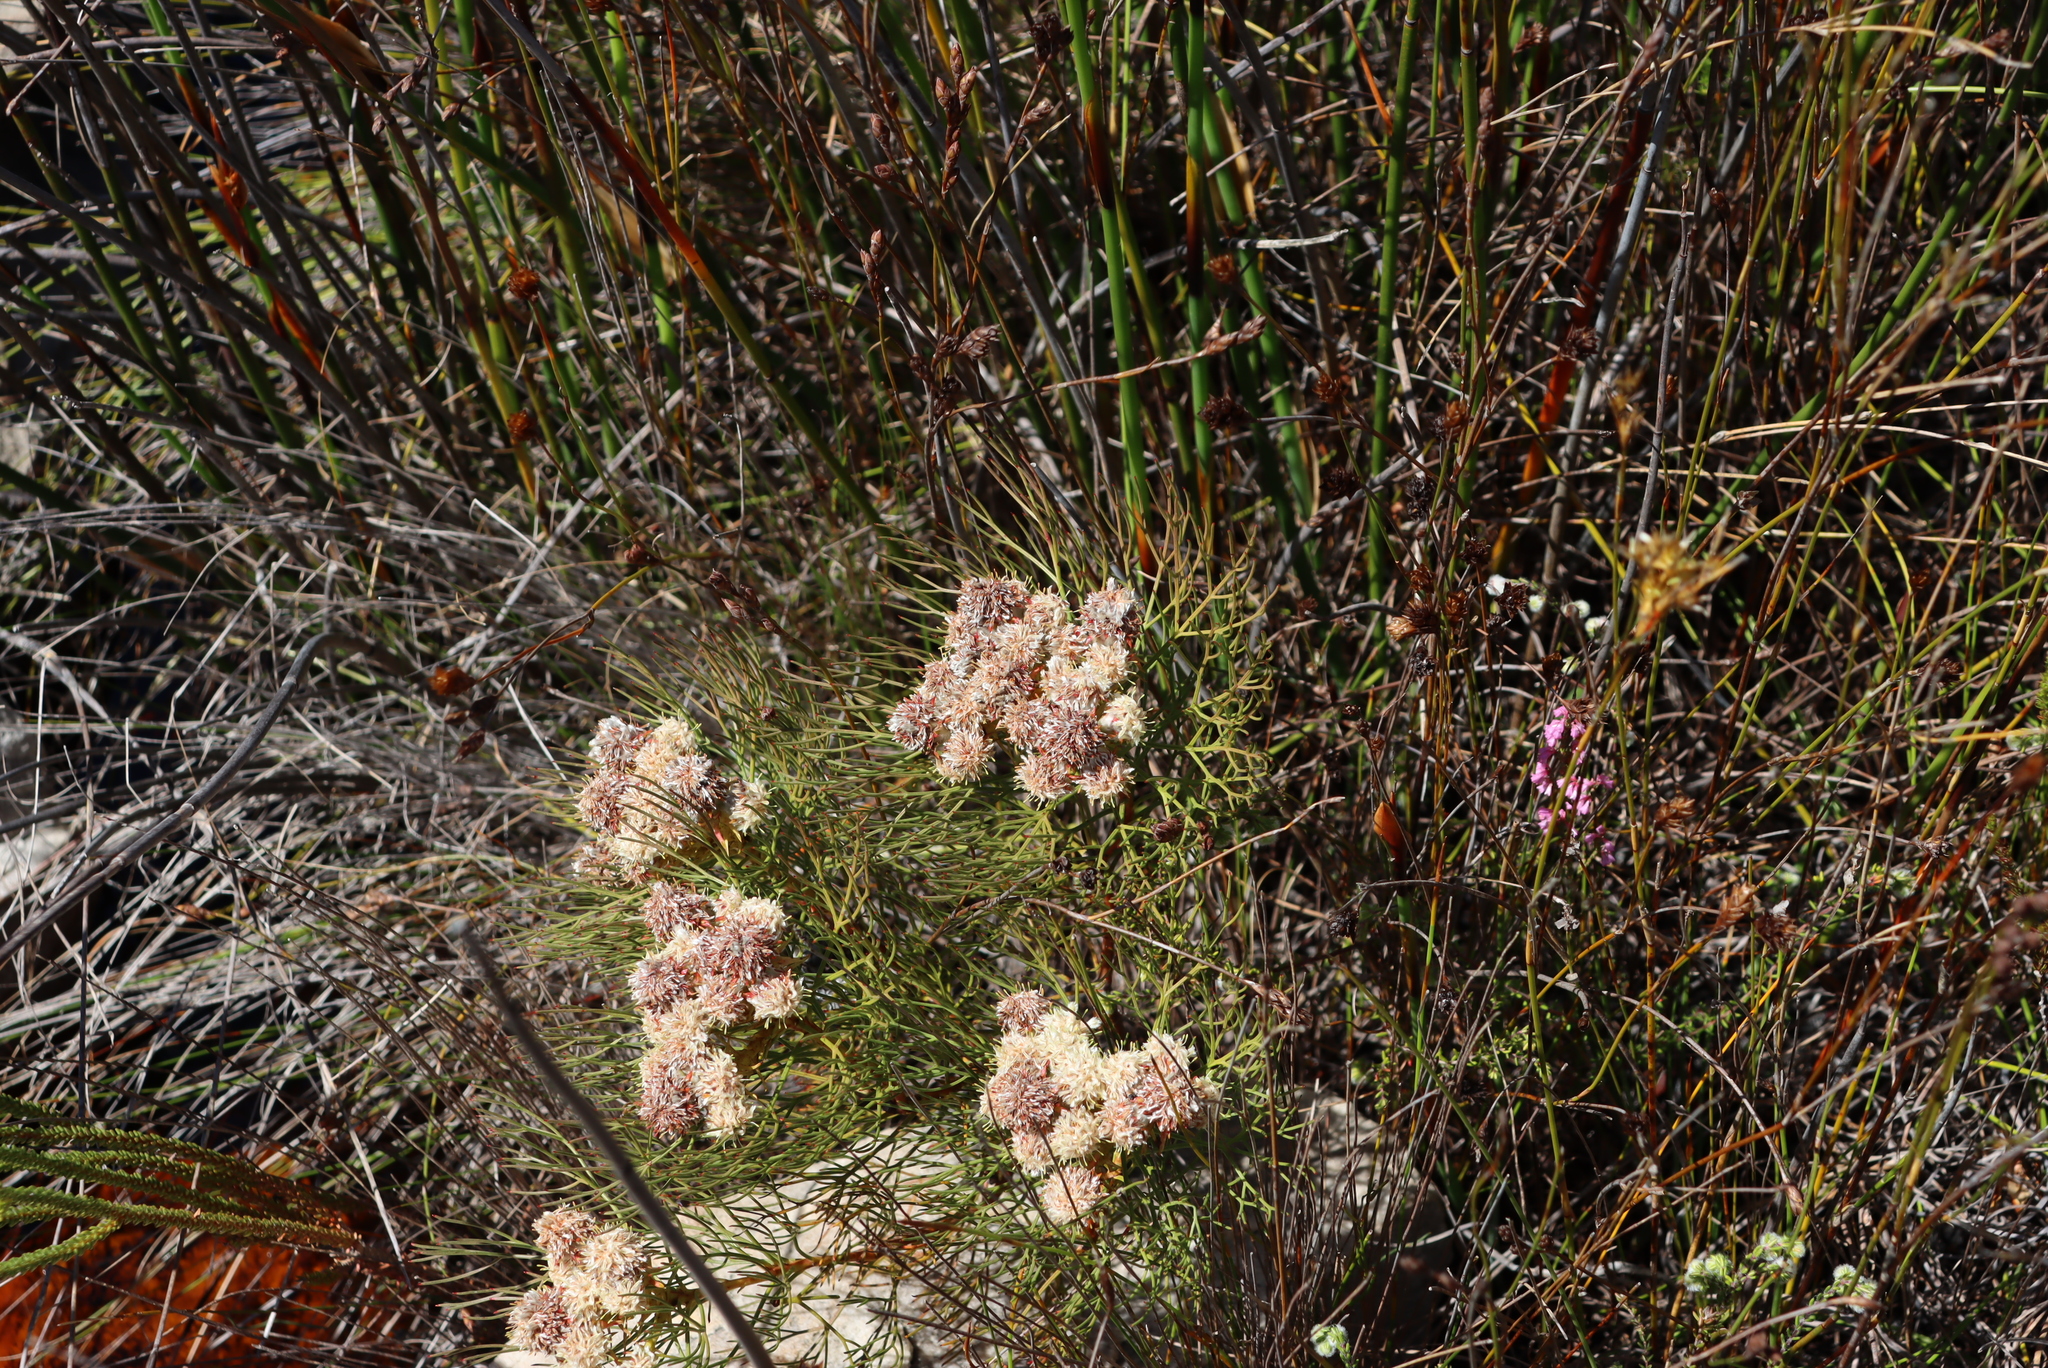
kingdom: Plantae
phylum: Tracheophyta
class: Magnoliopsida
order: Proteales
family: Proteaceae
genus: Serruria
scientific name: Serruria glomerata
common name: Cluster spiderhead
